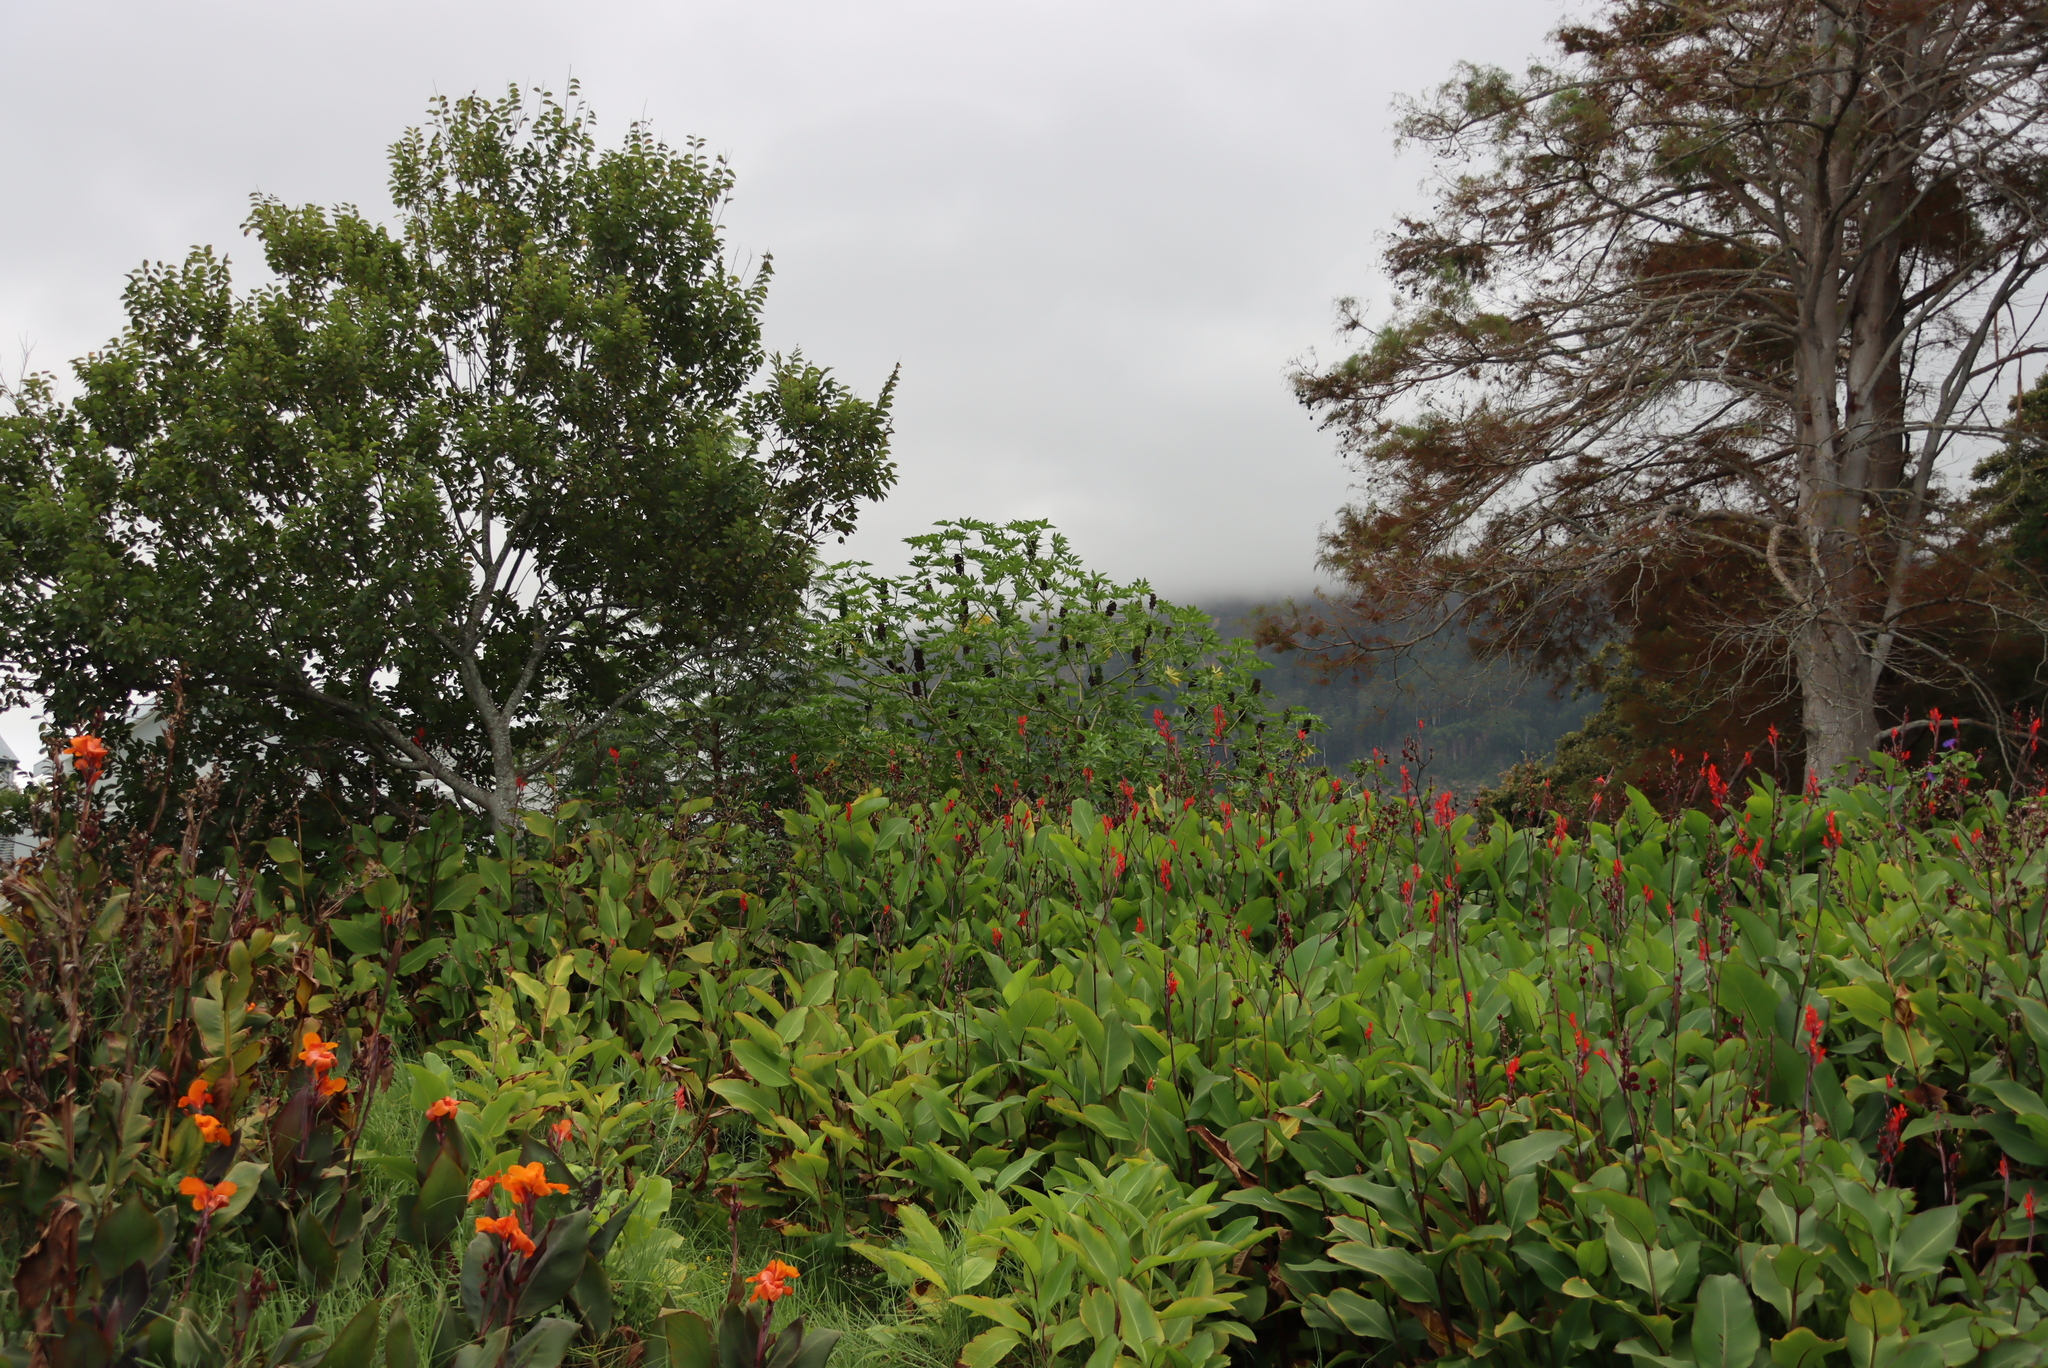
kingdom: Plantae
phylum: Tracheophyta
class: Magnoliopsida
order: Malpighiales
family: Euphorbiaceae
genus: Ricinus
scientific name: Ricinus communis
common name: Castor-oil-plant
